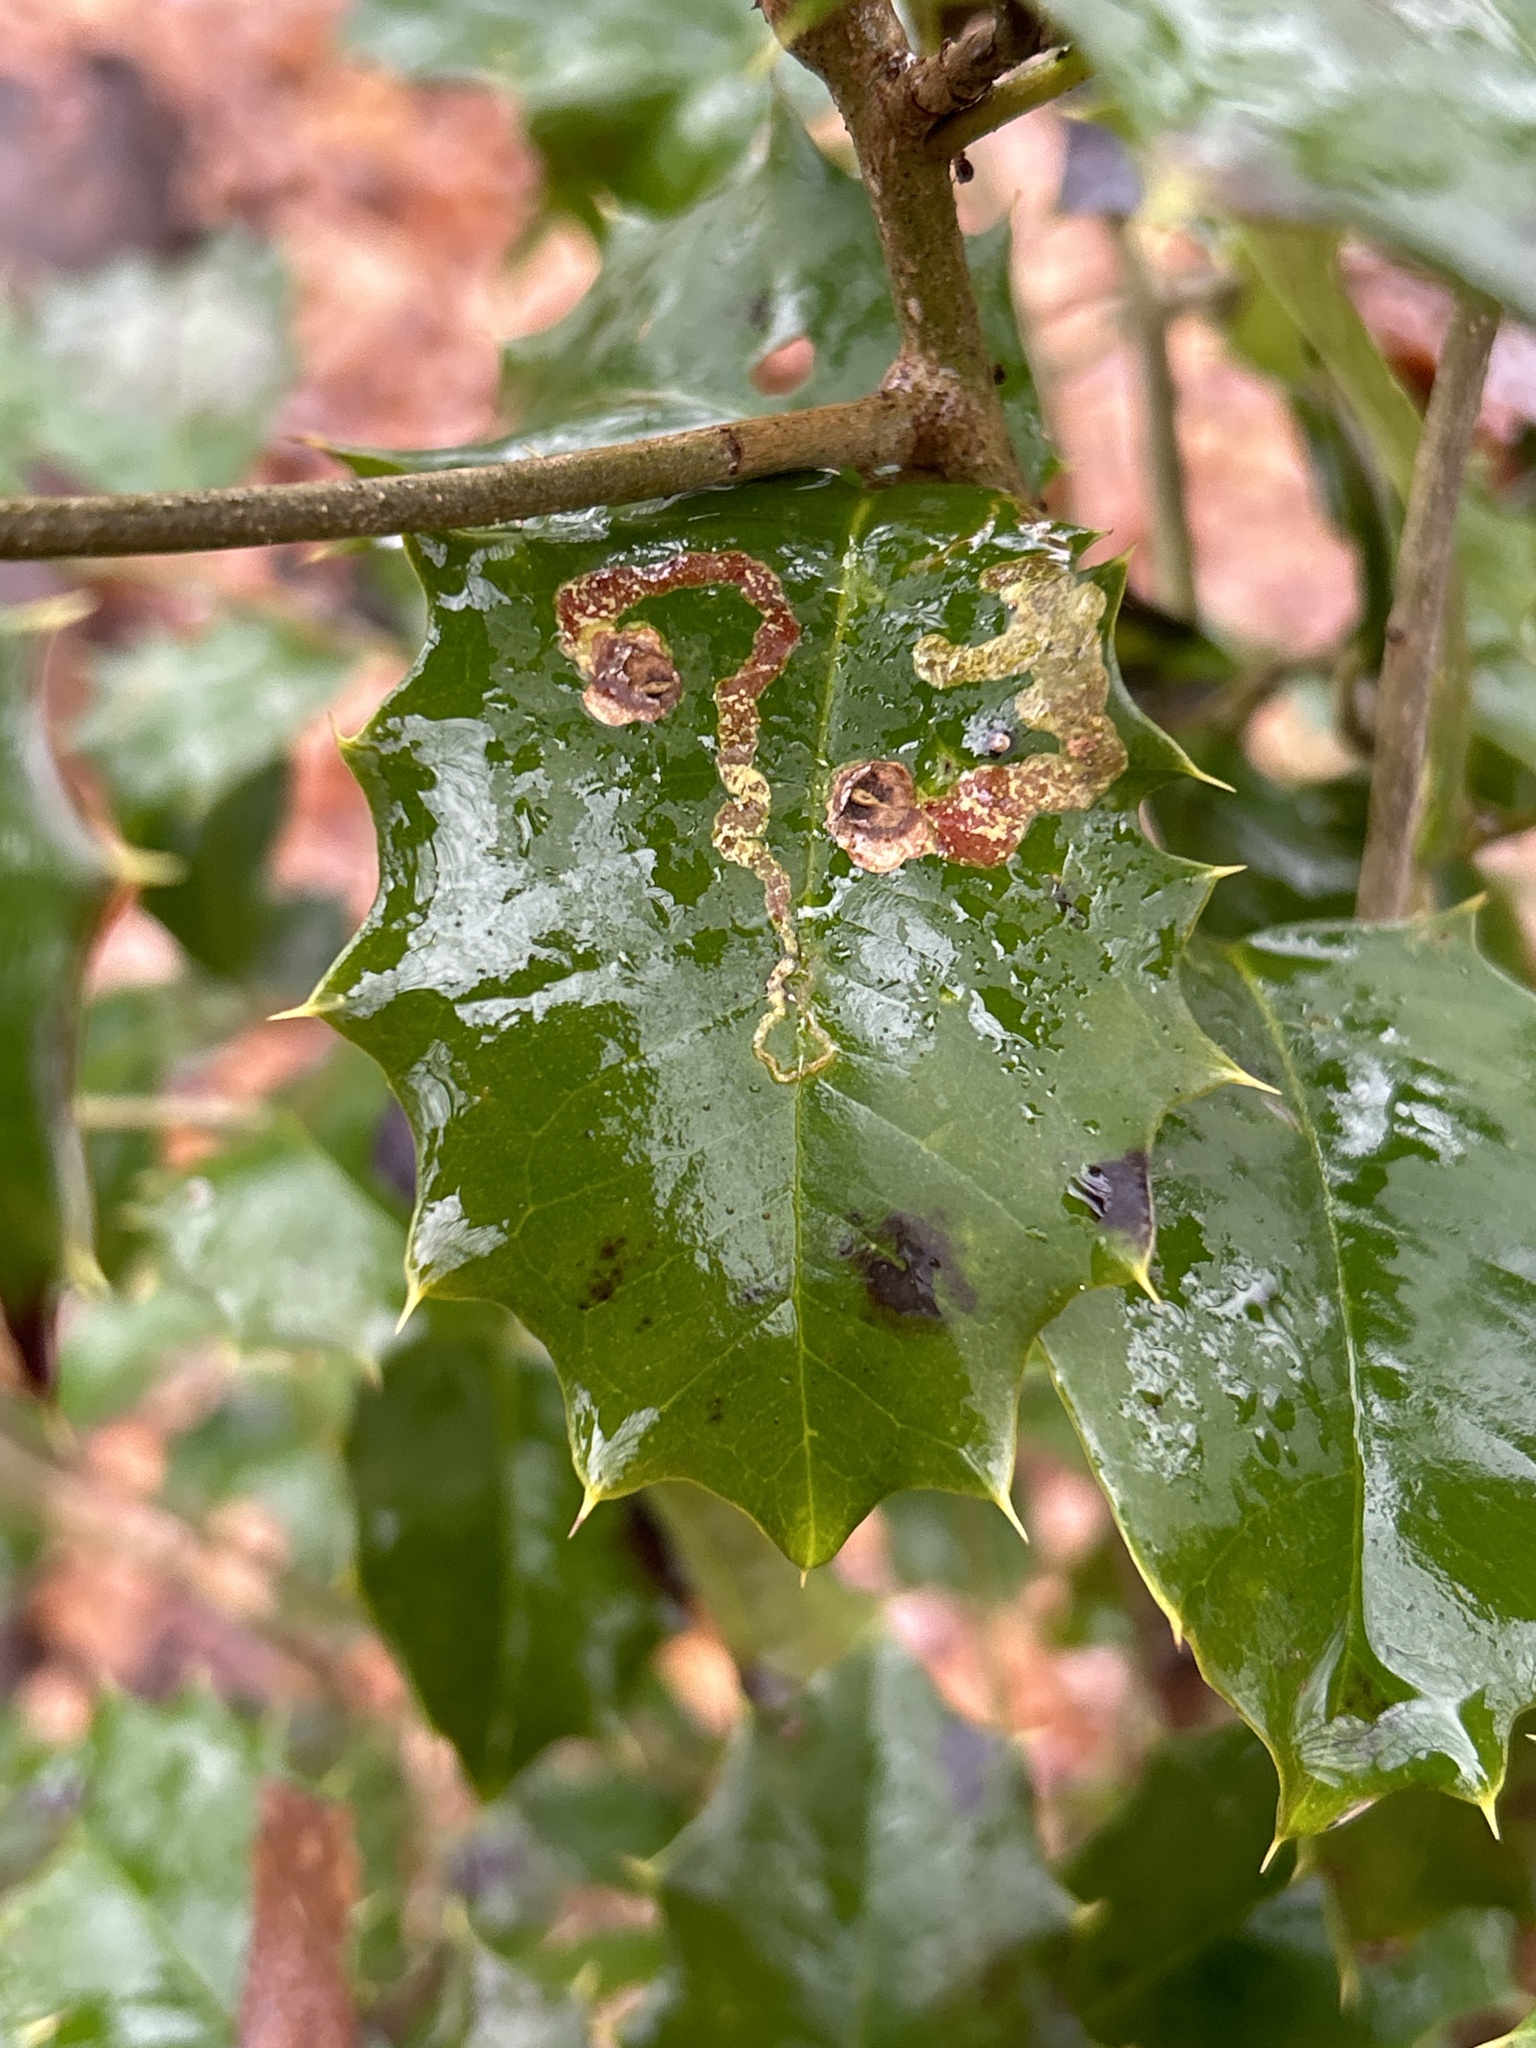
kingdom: Animalia
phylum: Arthropoda
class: Insecta
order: Diptera
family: Agromyzidae
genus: Phytomyza
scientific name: Phytomyza ilicicola
